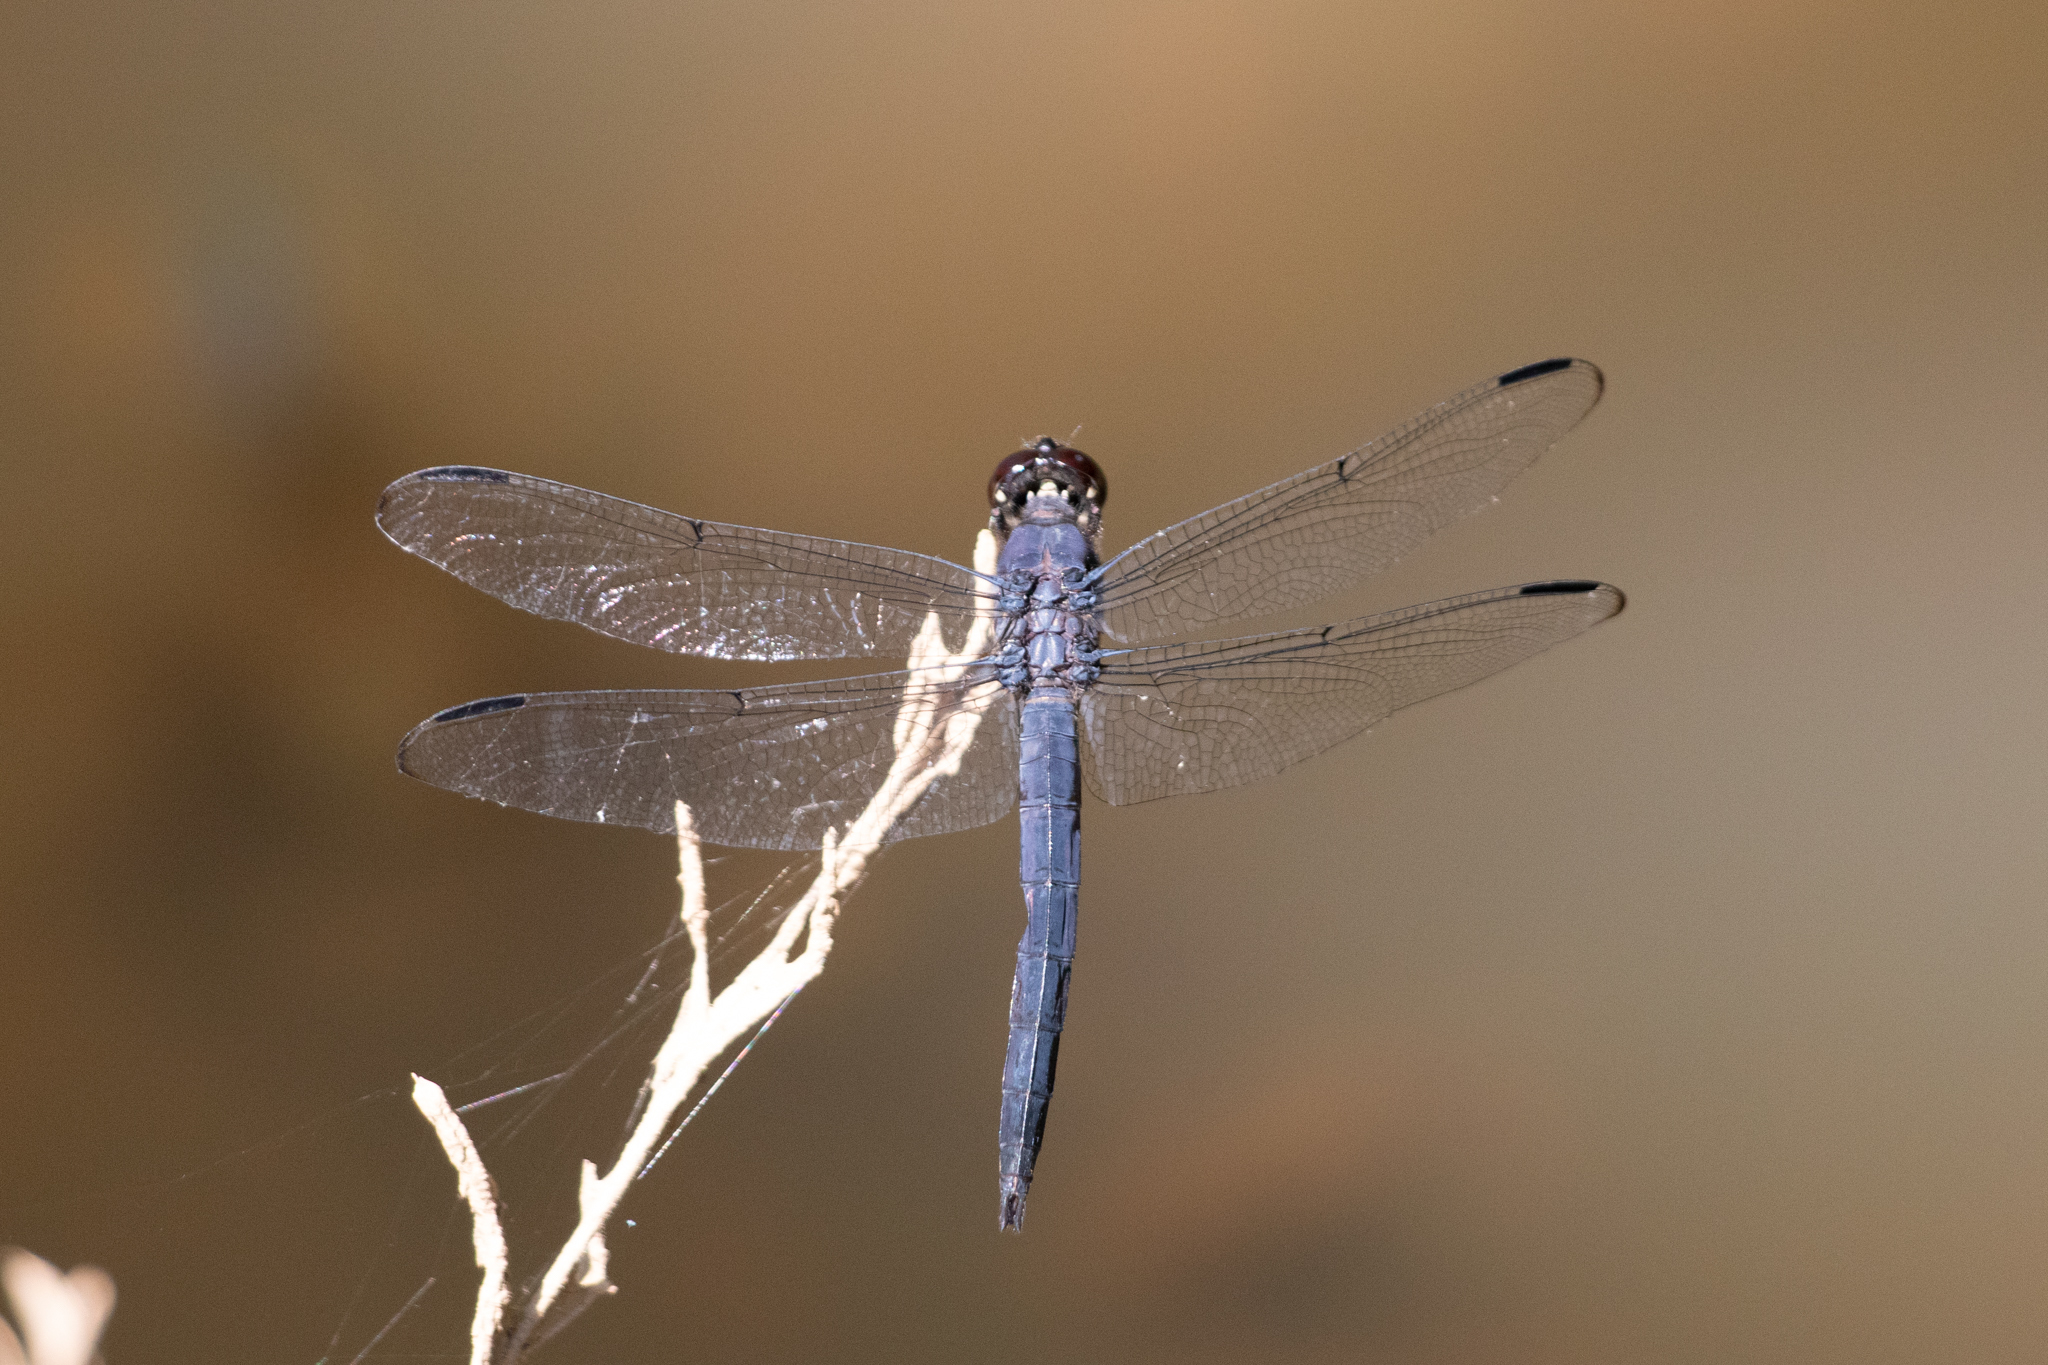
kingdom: Animalia
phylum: Arthropoda
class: Insecta
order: Odonata
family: Libellulidae
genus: Libellula
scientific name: Libellula incesta
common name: Slaty skimmer
